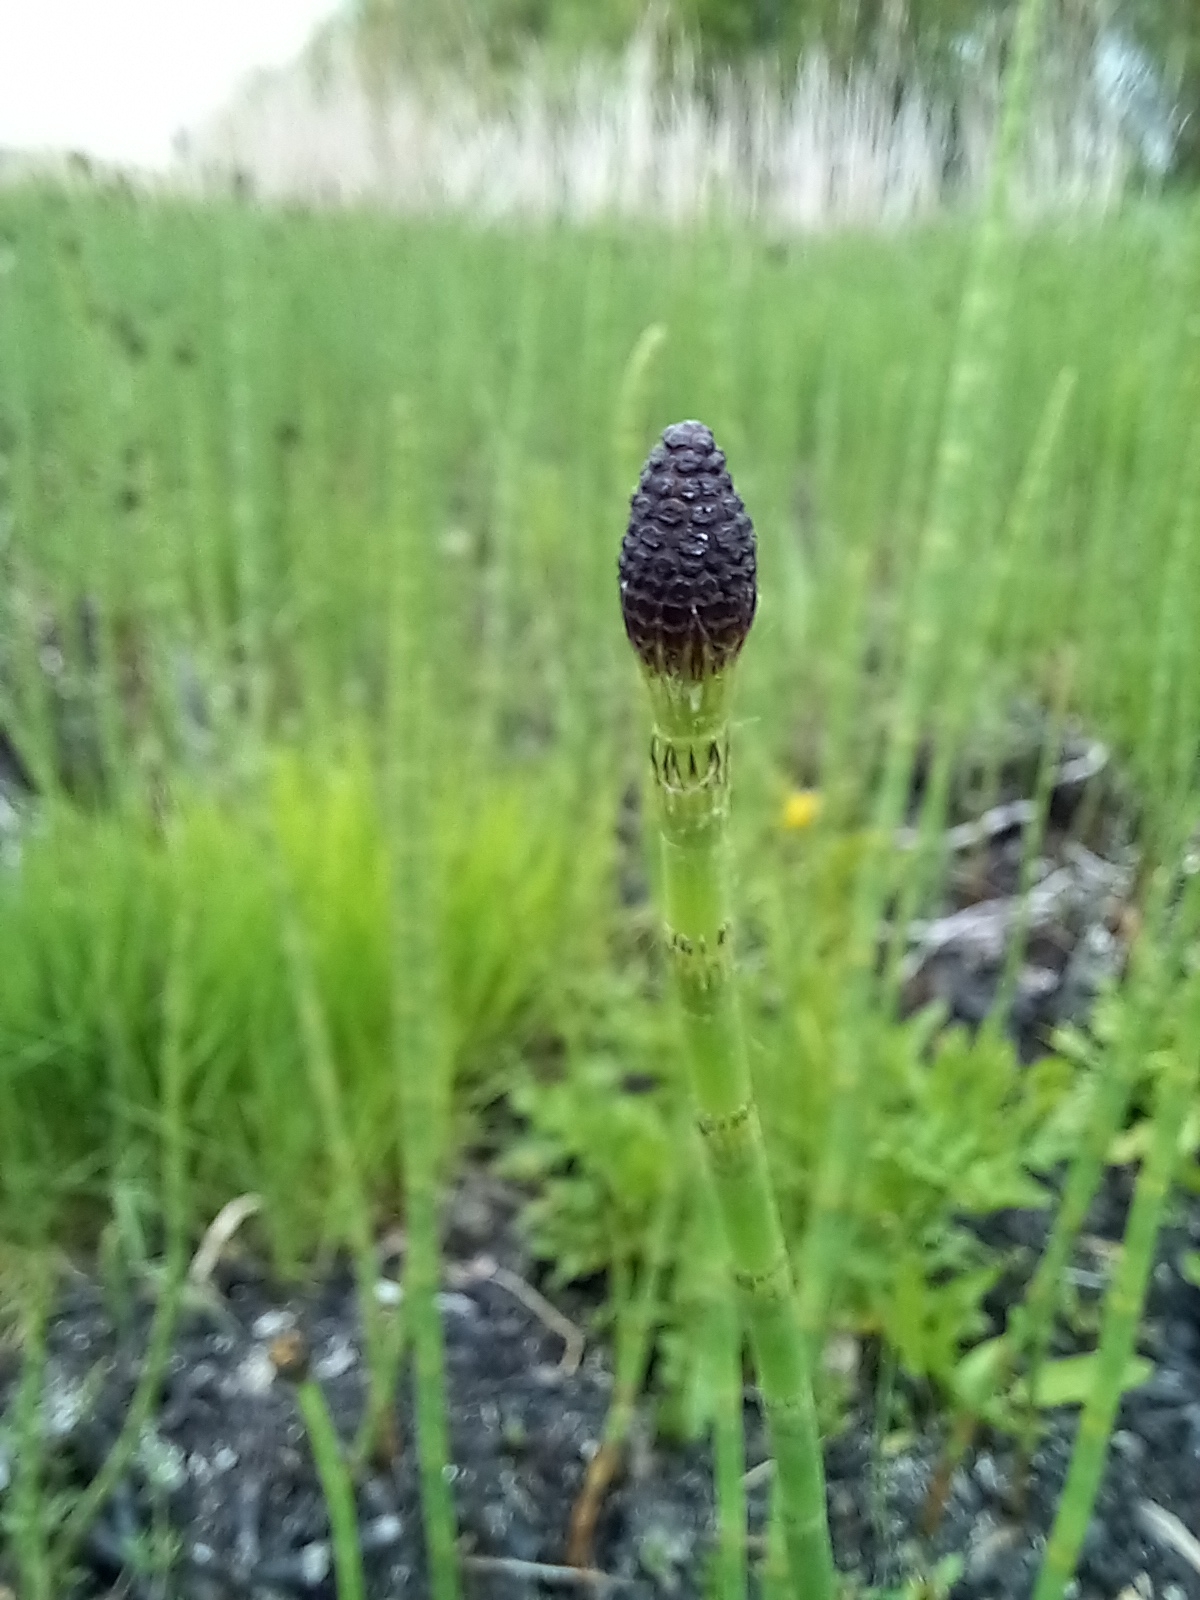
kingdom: Plantae
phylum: Tracheophyta
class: Polypodiopsida
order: Equisetales
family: Equisetaceae
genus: Equisetum
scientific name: Equisetum fluviatile
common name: Water horsetail
